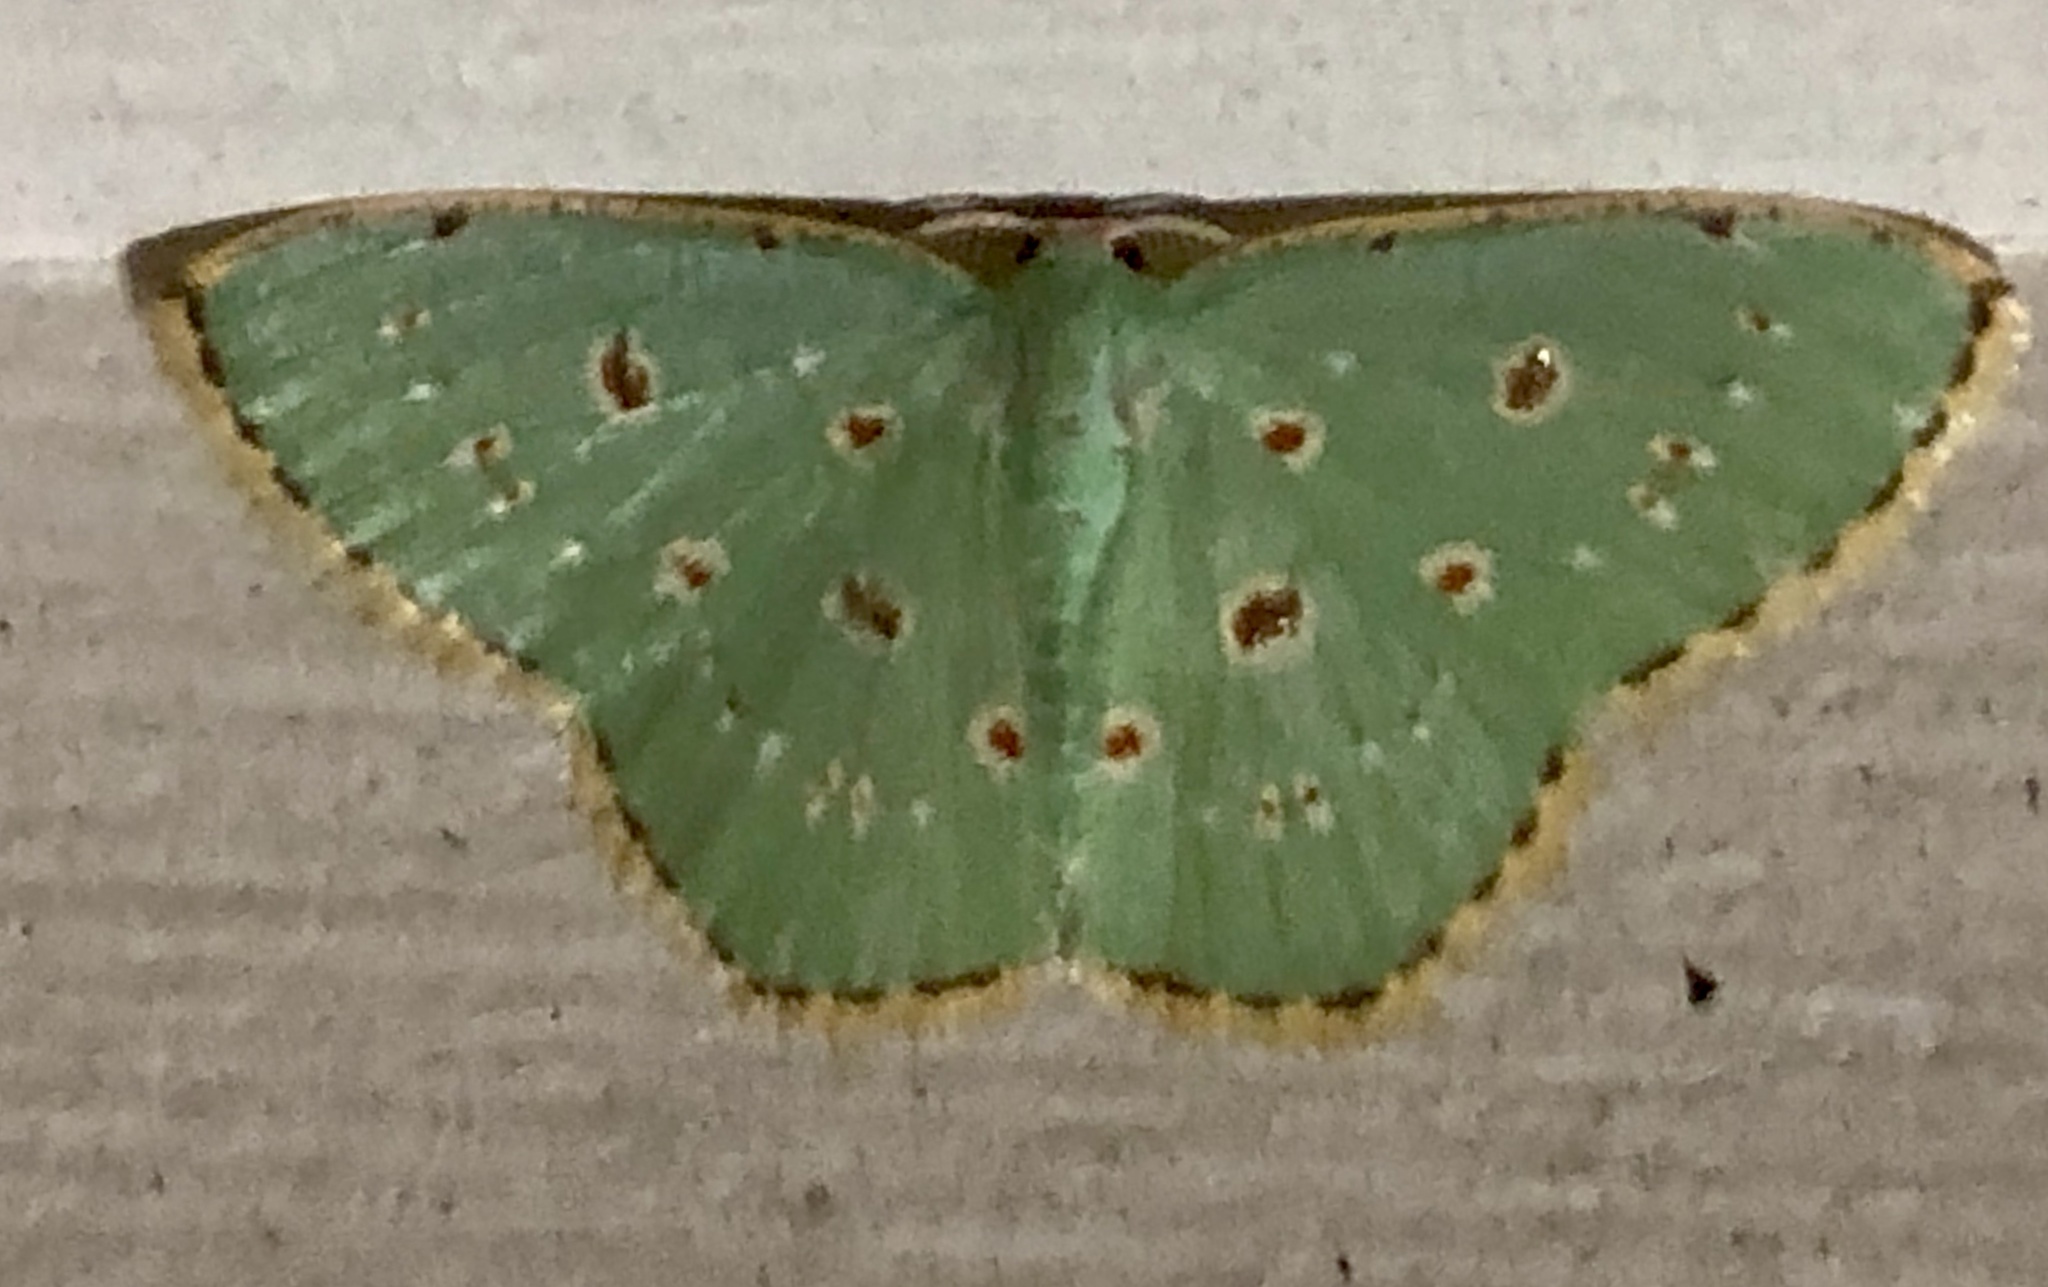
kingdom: Animalia
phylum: Arthropoda
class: Insecta
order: Lepidoptera
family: Geometridae
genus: Comostola
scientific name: Comostola laesaria
